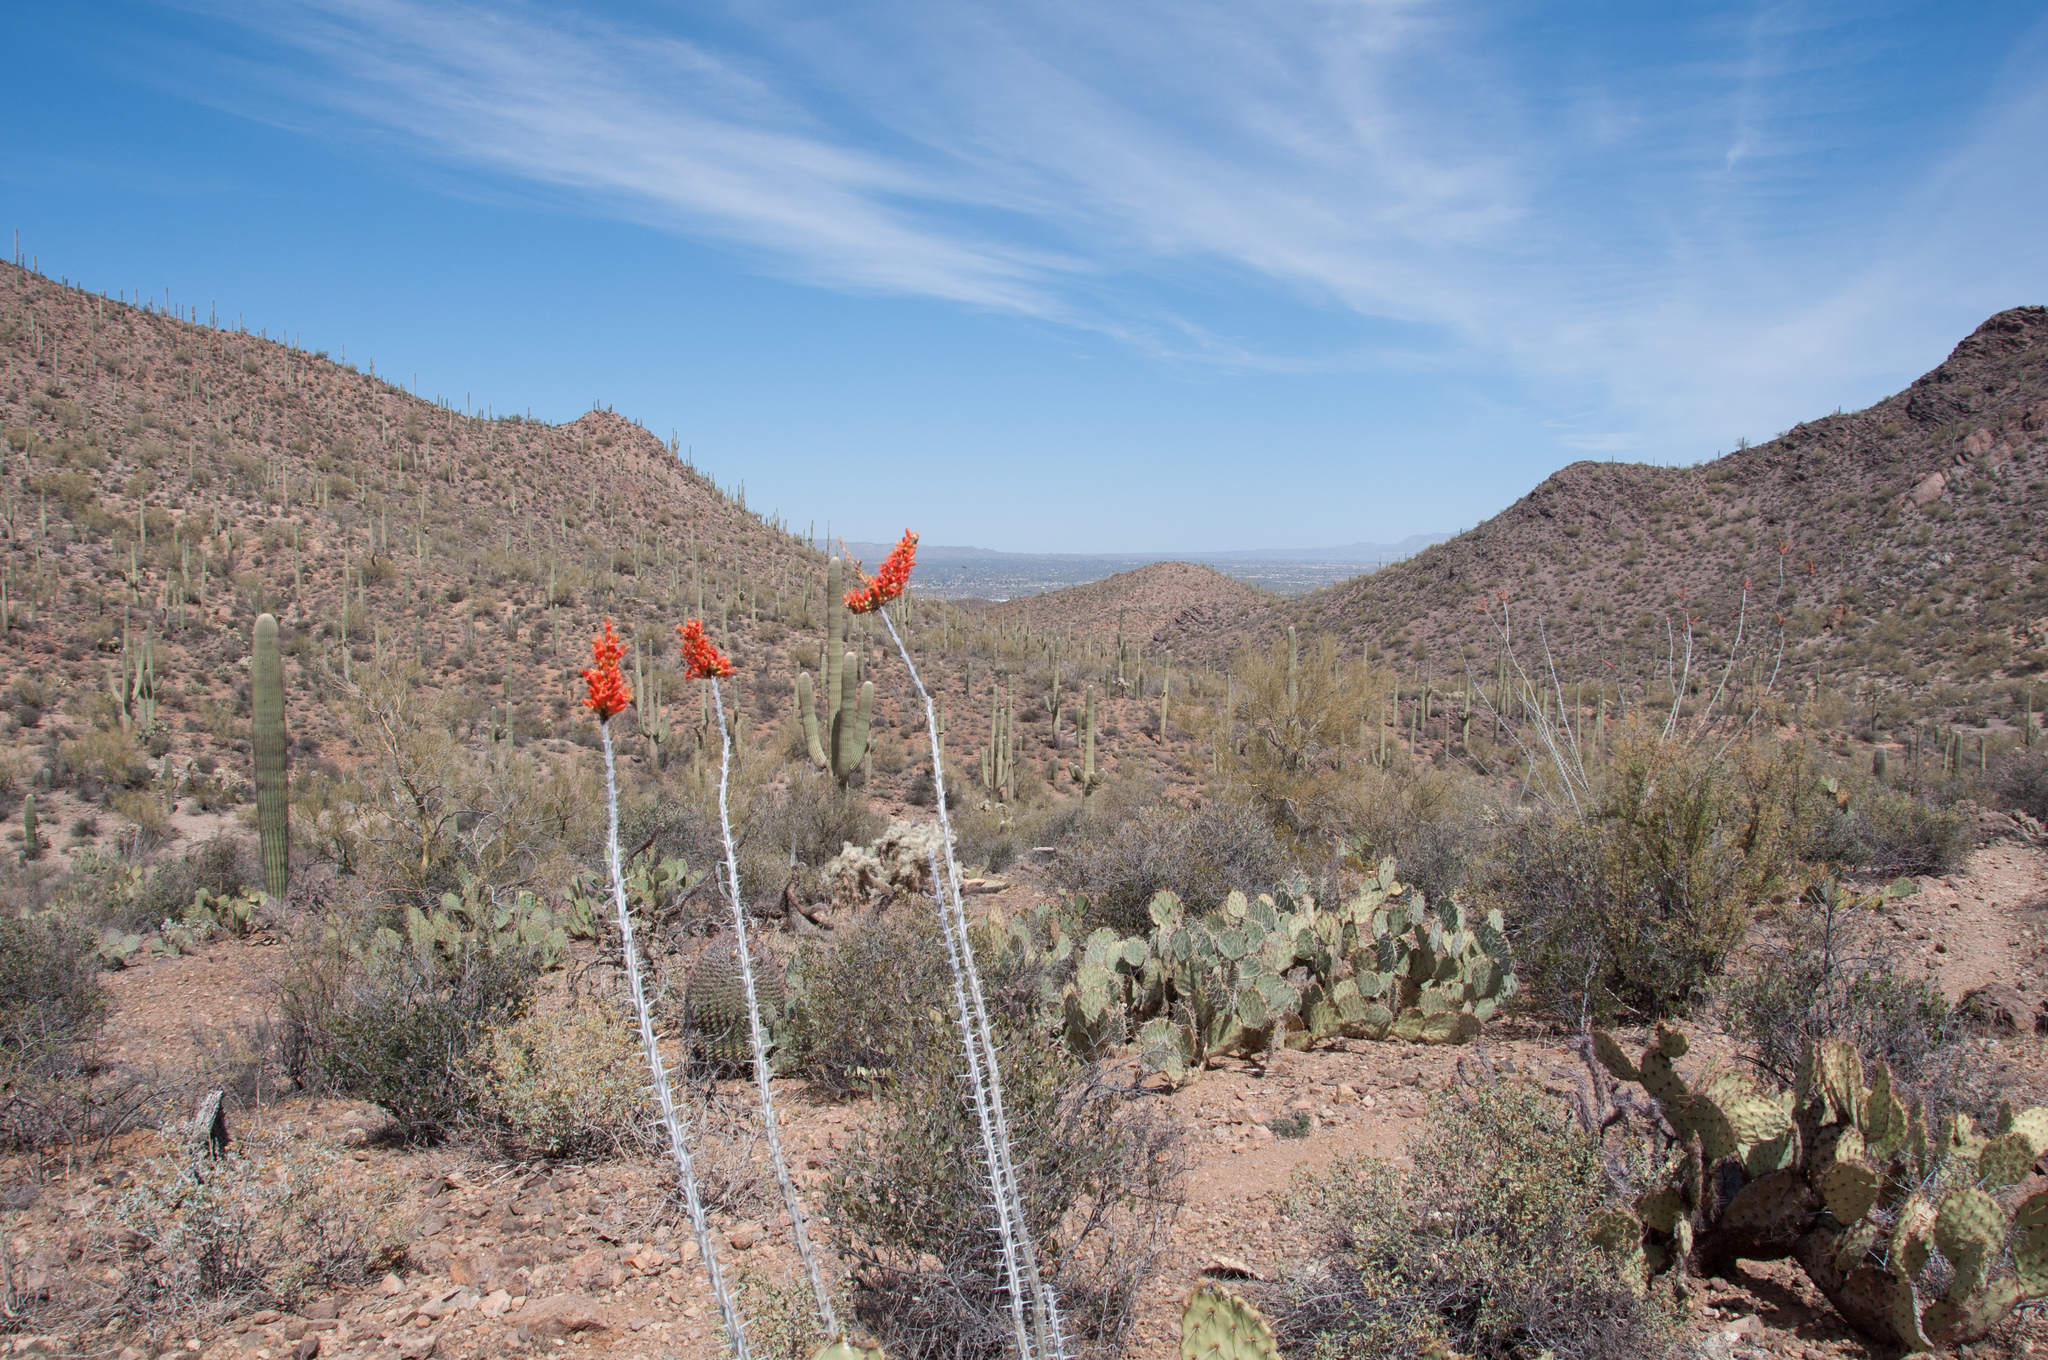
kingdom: Plantae
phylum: Tracheophyta
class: Magnoliopsida
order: Ericales
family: Fouquieriaceae
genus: Fouquieria
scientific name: Fouquieria splendens
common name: Vine-cactus
